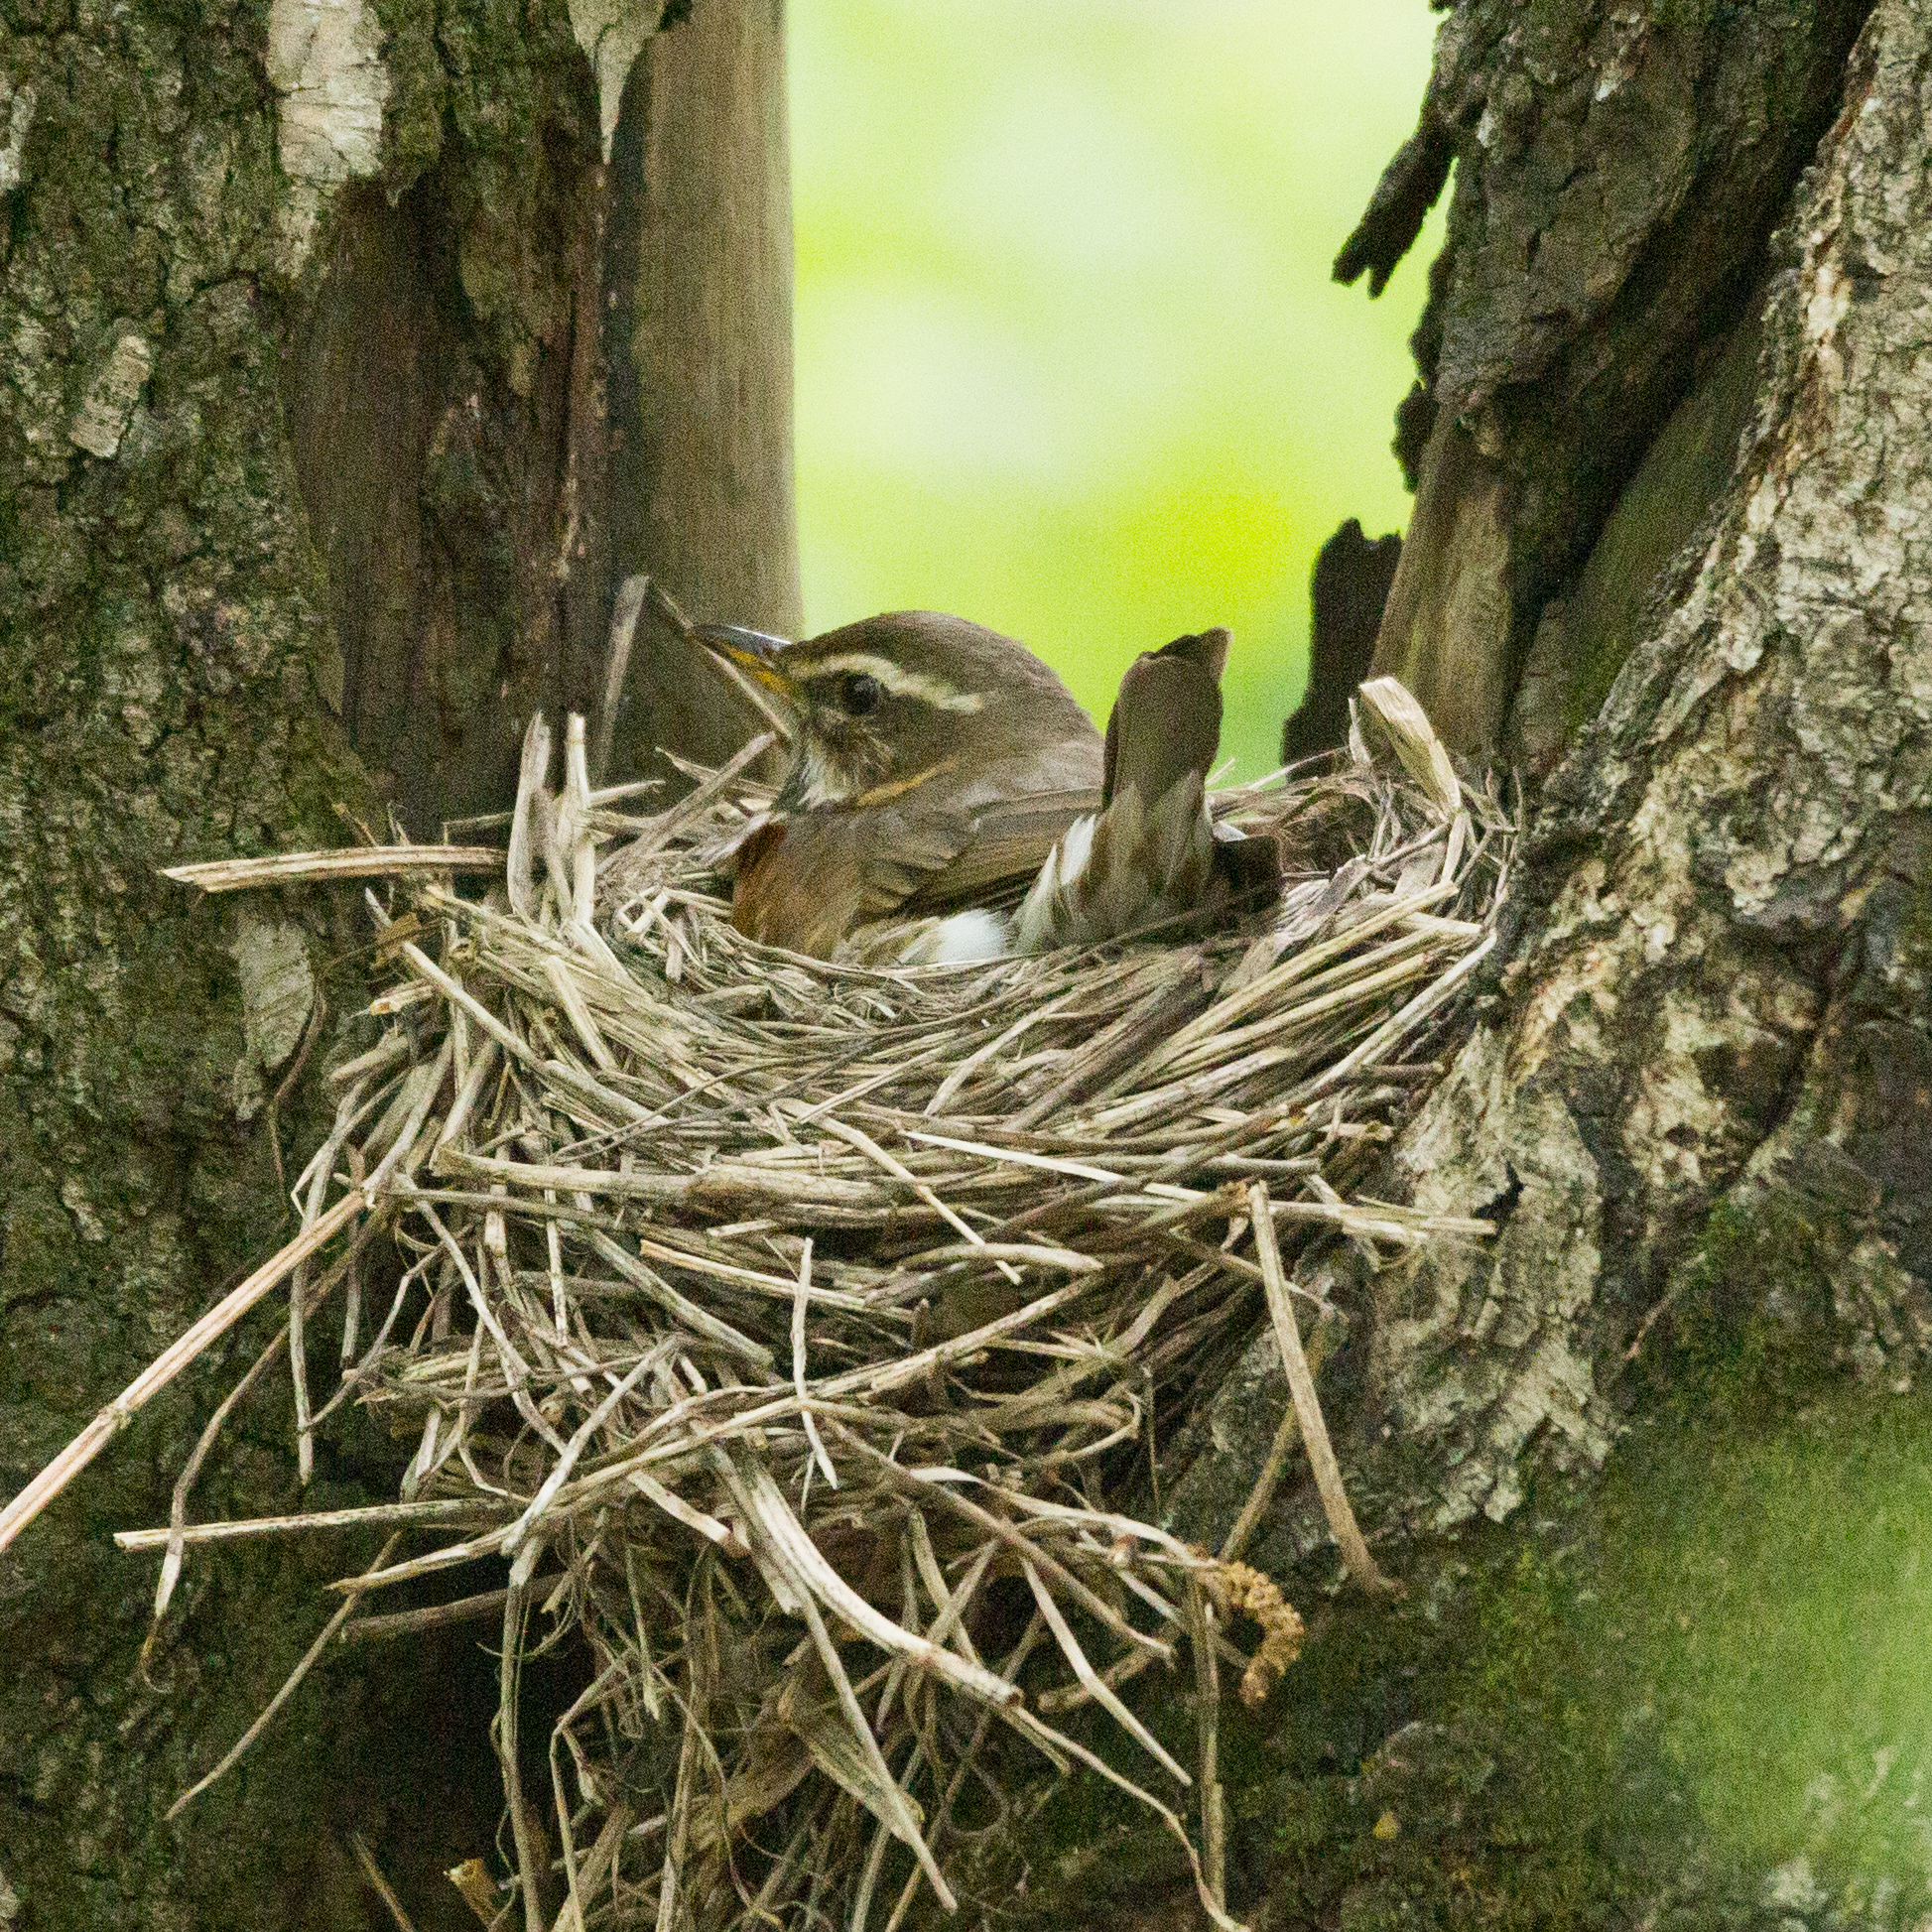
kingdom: Animalia
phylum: Chordata
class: Aves
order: Passeriformes
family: Turdidae
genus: Turdus
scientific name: Turdus iliacus
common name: Redwing
